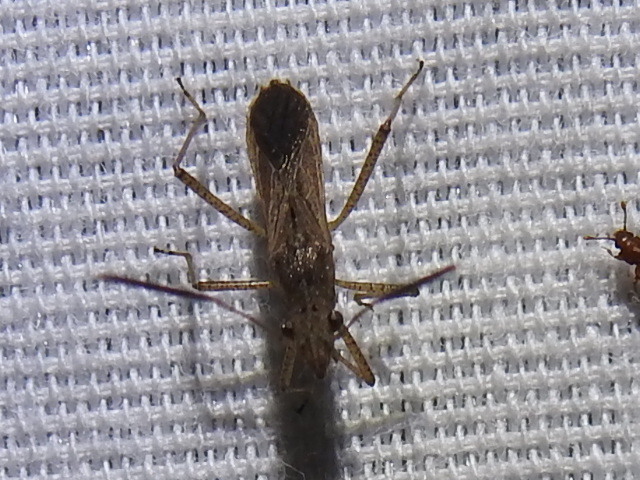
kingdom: Animalia
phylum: Arthropoda
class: Insecta
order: Hemiptera
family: Alydidae
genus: Esperanza
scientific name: Esperanza texana
